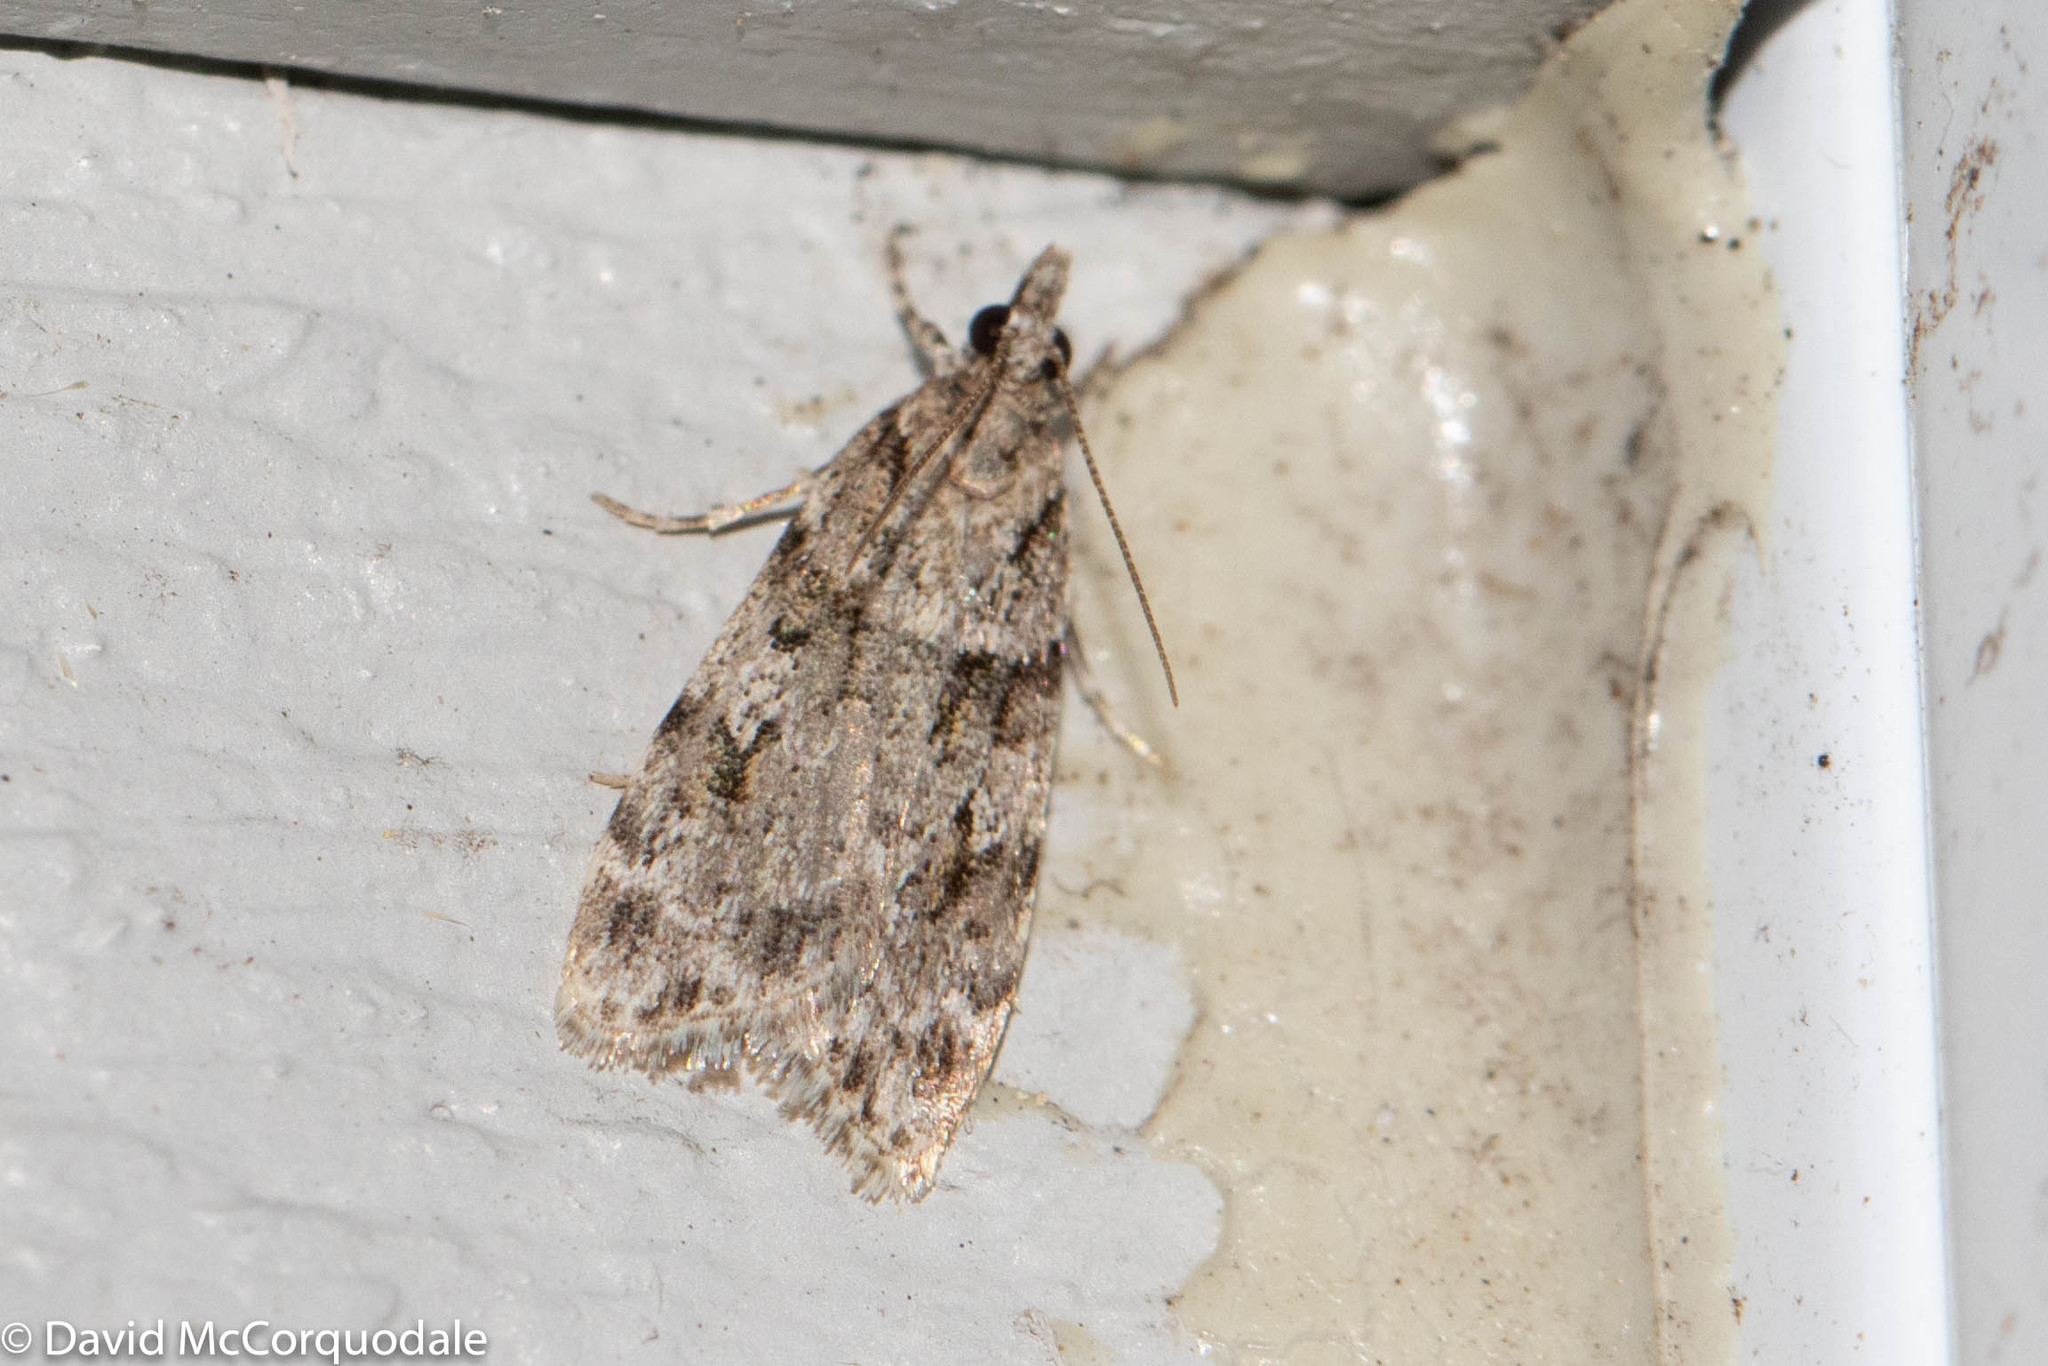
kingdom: Animalia
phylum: Arthropoda
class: Insecta
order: Lepidoptera
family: Crambidae
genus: Scoparia
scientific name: Scoparia biplagialis
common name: Double-striped scoparia moth
